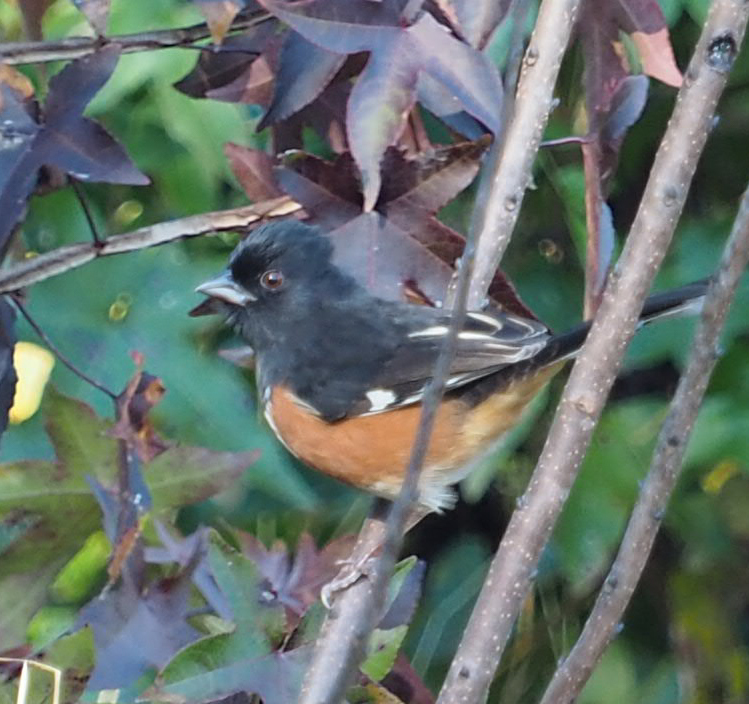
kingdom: Animalia
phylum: Chordata
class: Aves
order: Passeriformes
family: Passerellidae
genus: Pipilo
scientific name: Pipilo erythrophthalmus
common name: Eastern towhee
